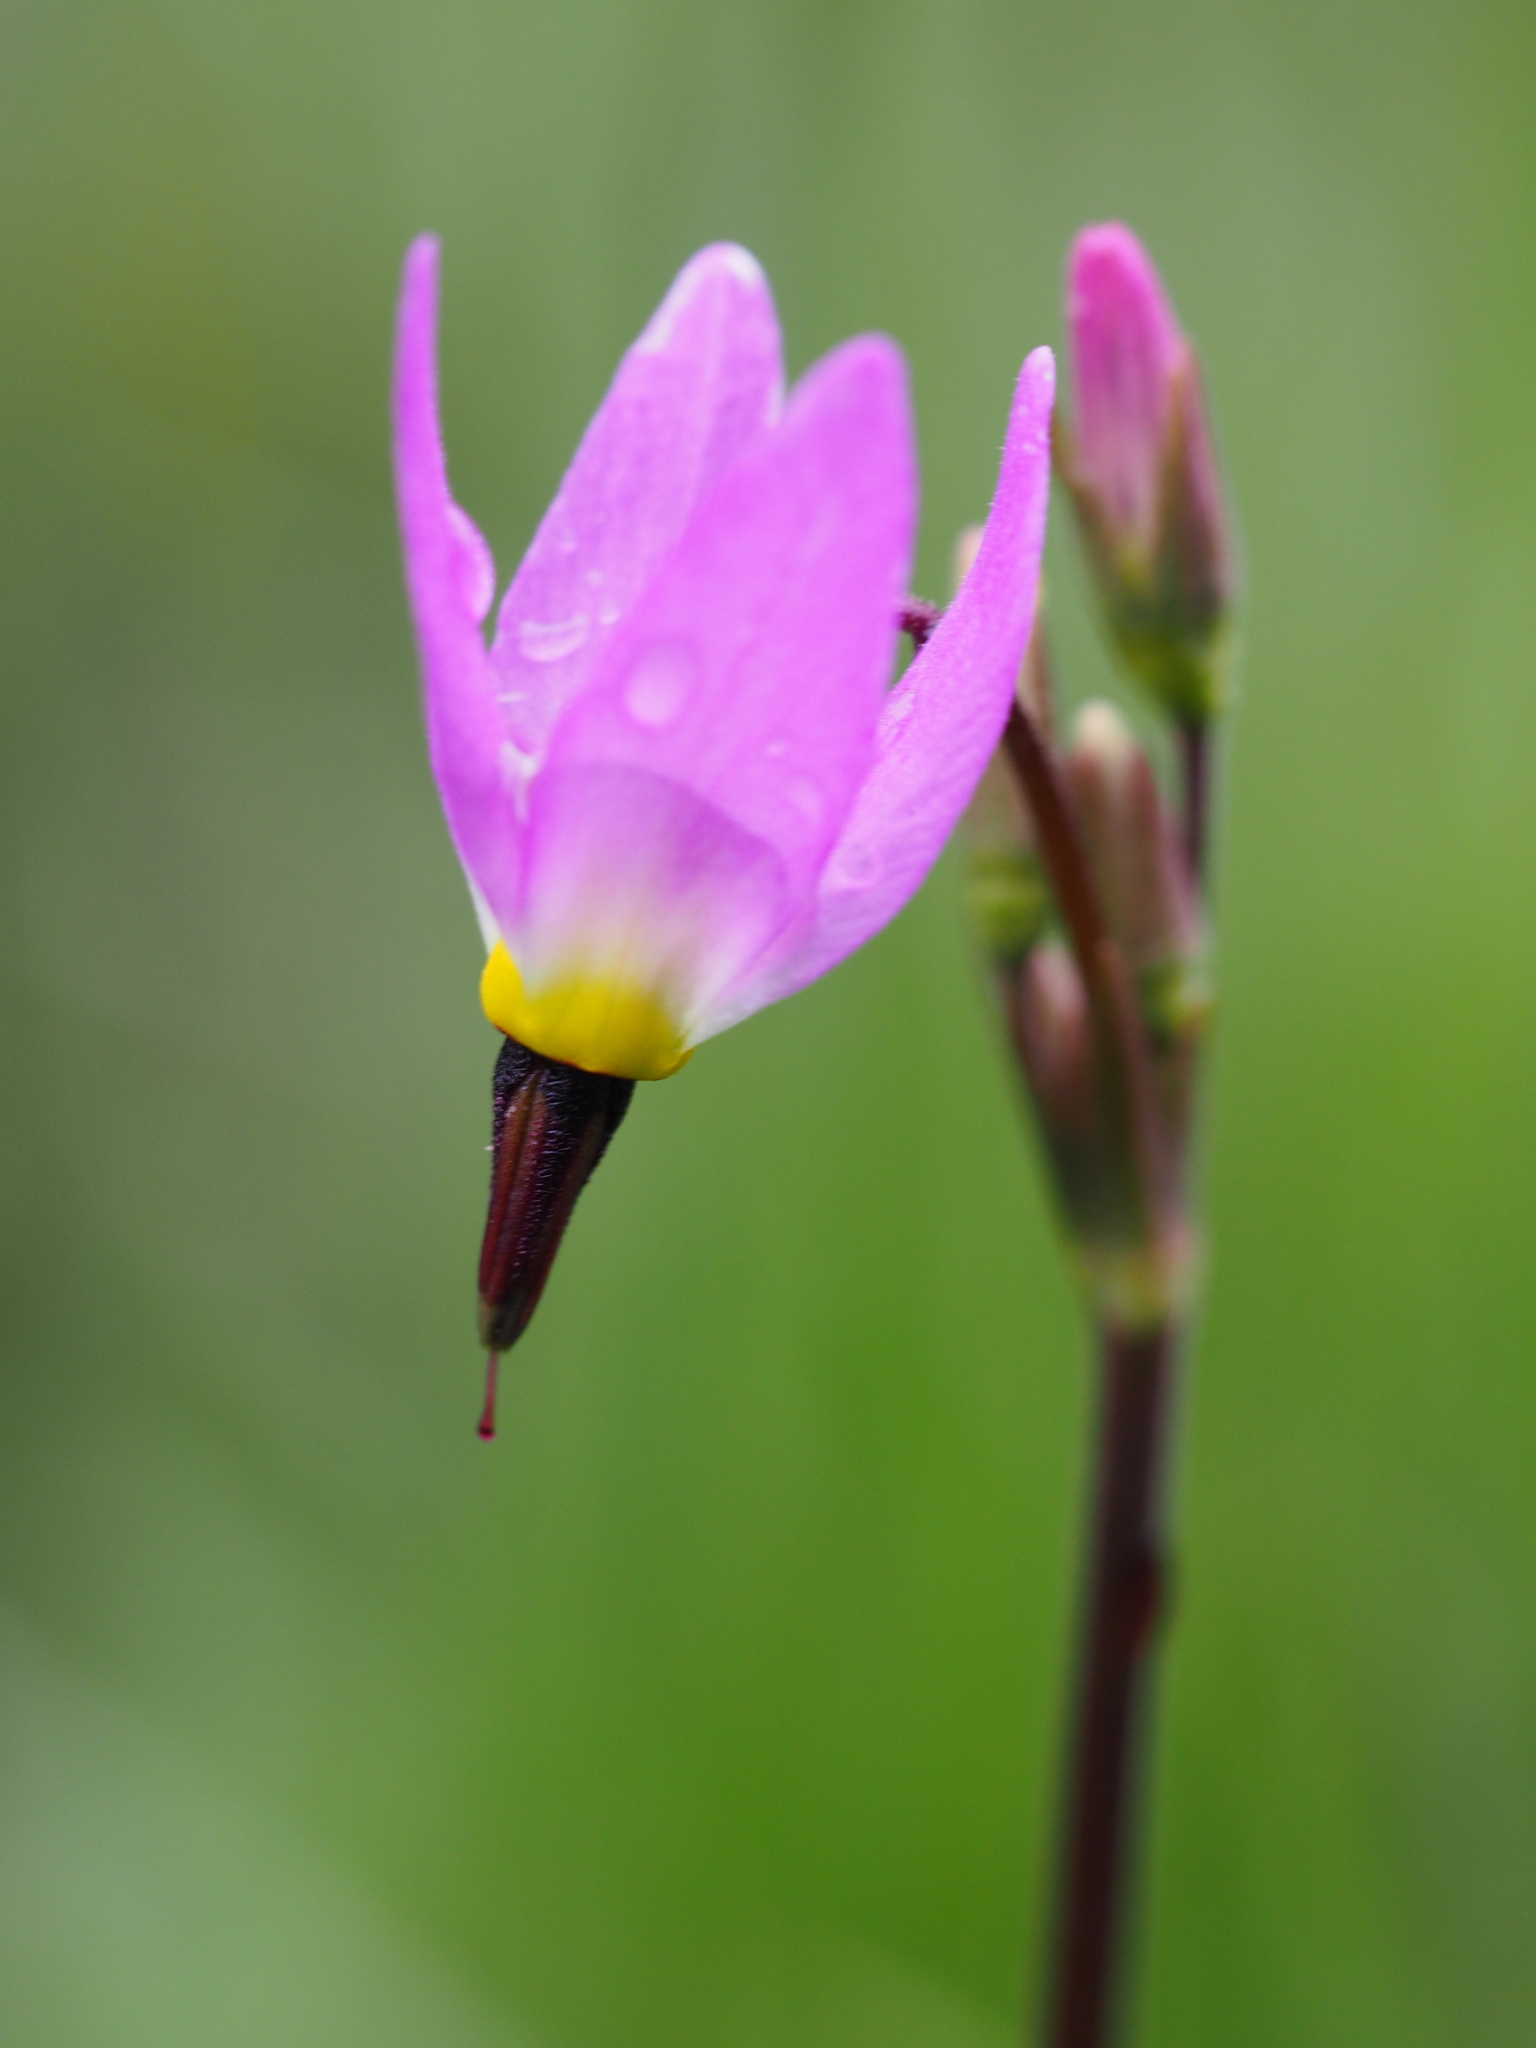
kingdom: Plantae
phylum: Tracheophyta
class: Magnoliopsida
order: Ericales
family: Primulaceae
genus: Dodecatheon
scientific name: Dodecatheon alpinum
